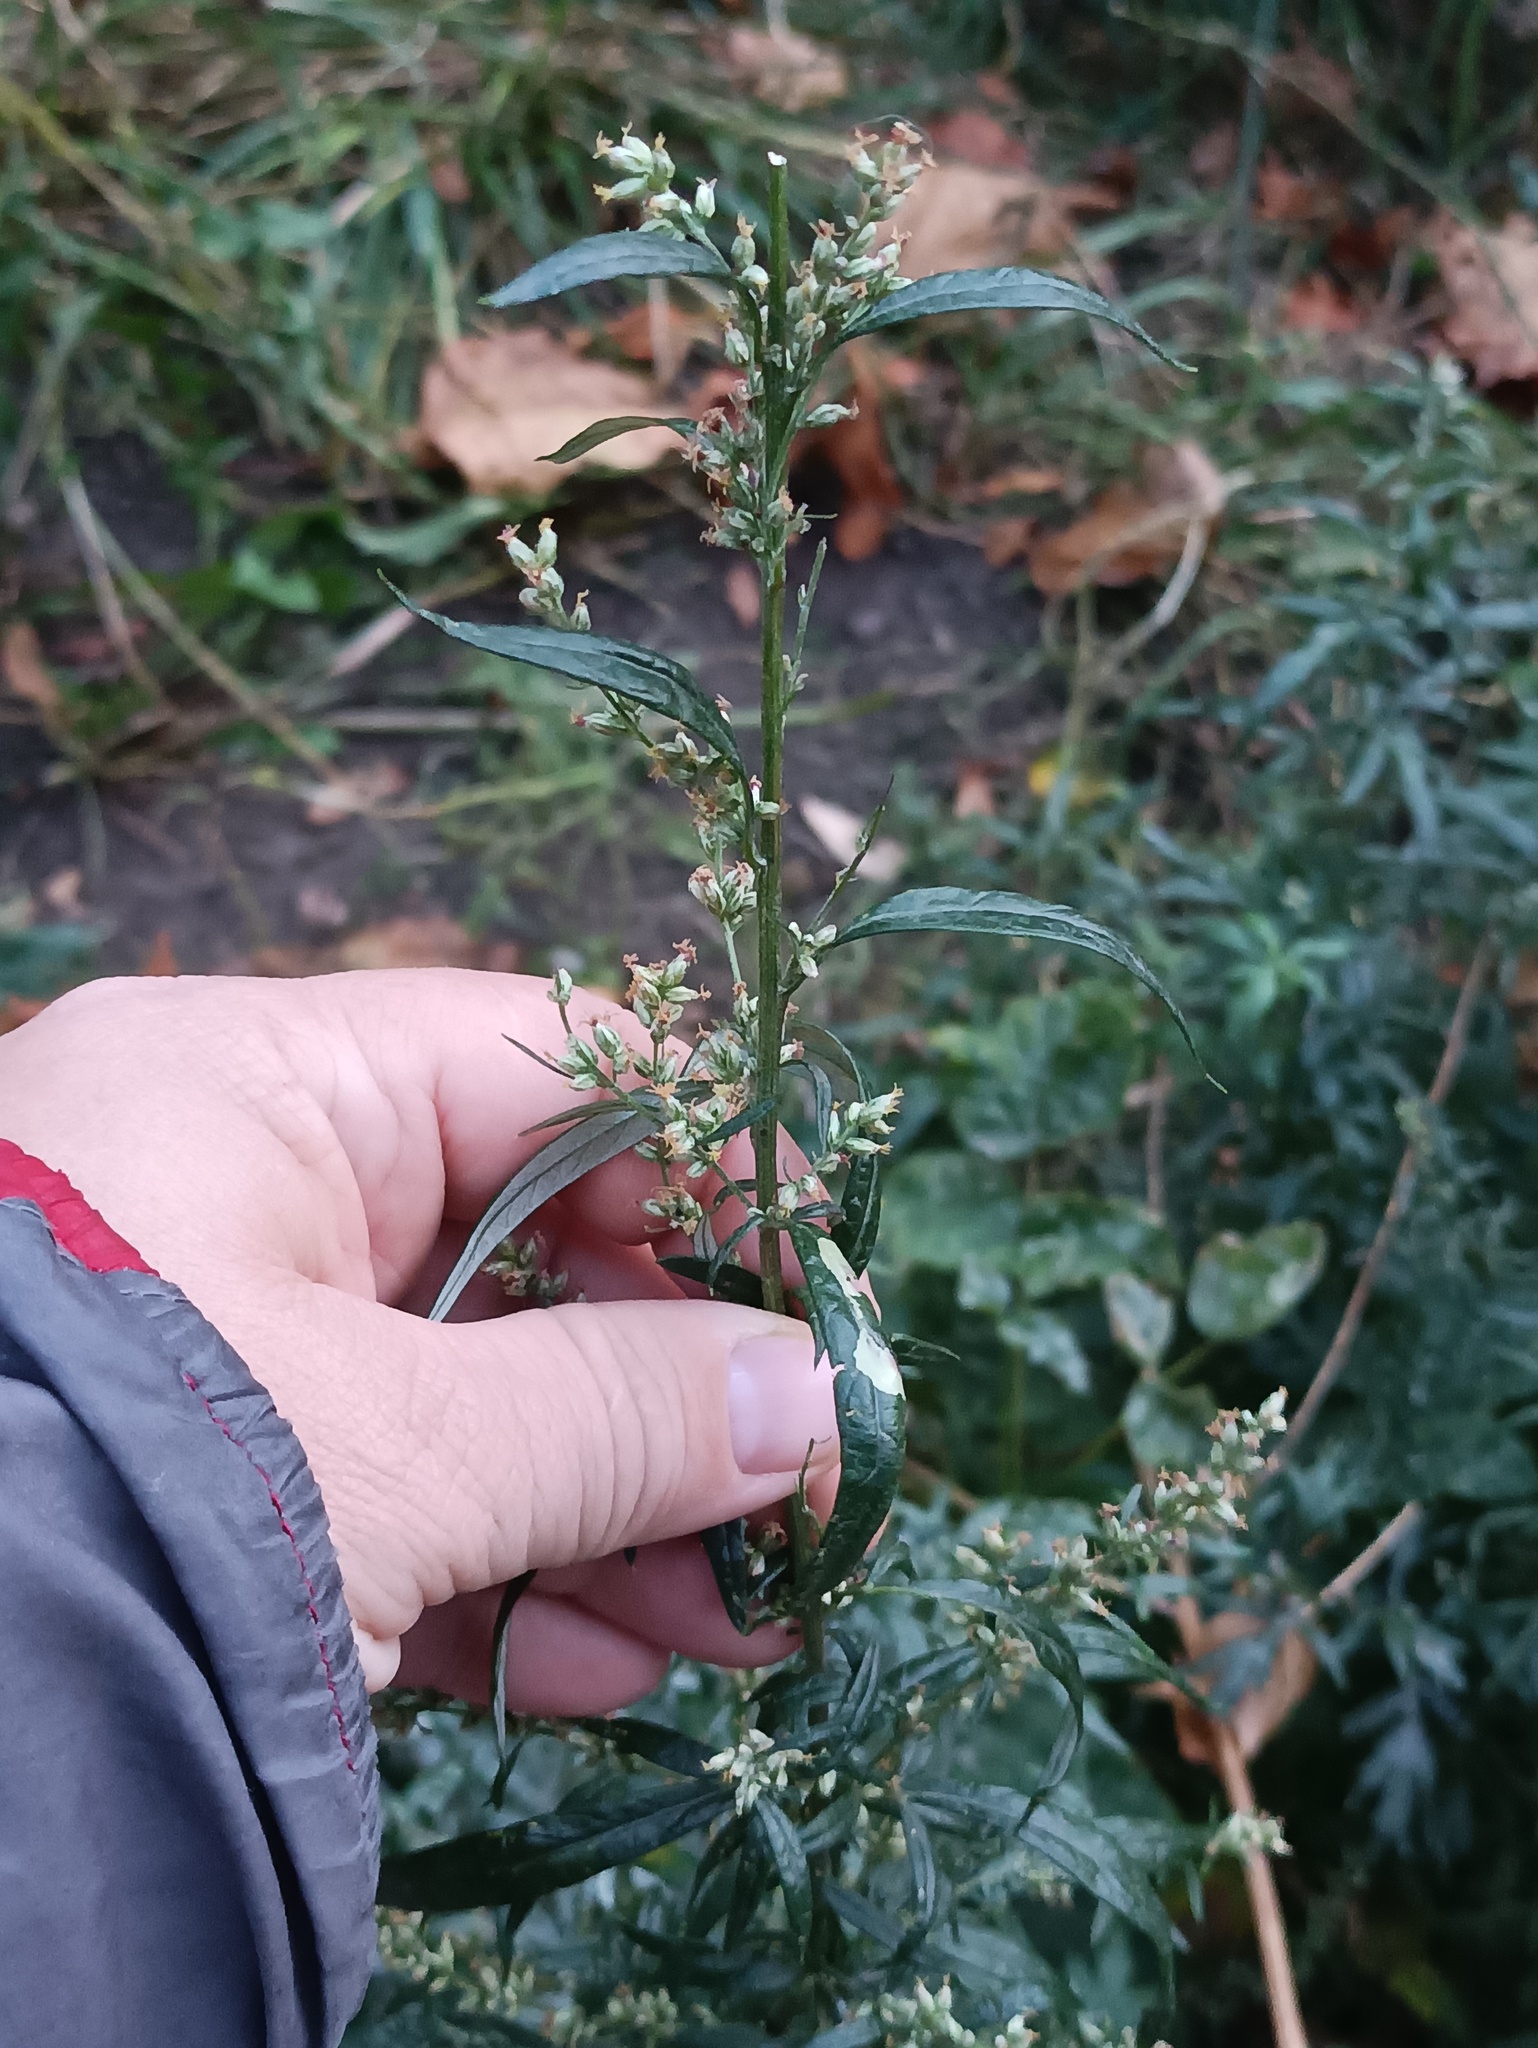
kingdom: Plantae
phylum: Tracheophyta
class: Magnoliopsida
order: Asterales
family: Asteraceae
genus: Artemisia
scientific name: Artemisia vulgaris
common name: Mugwort
